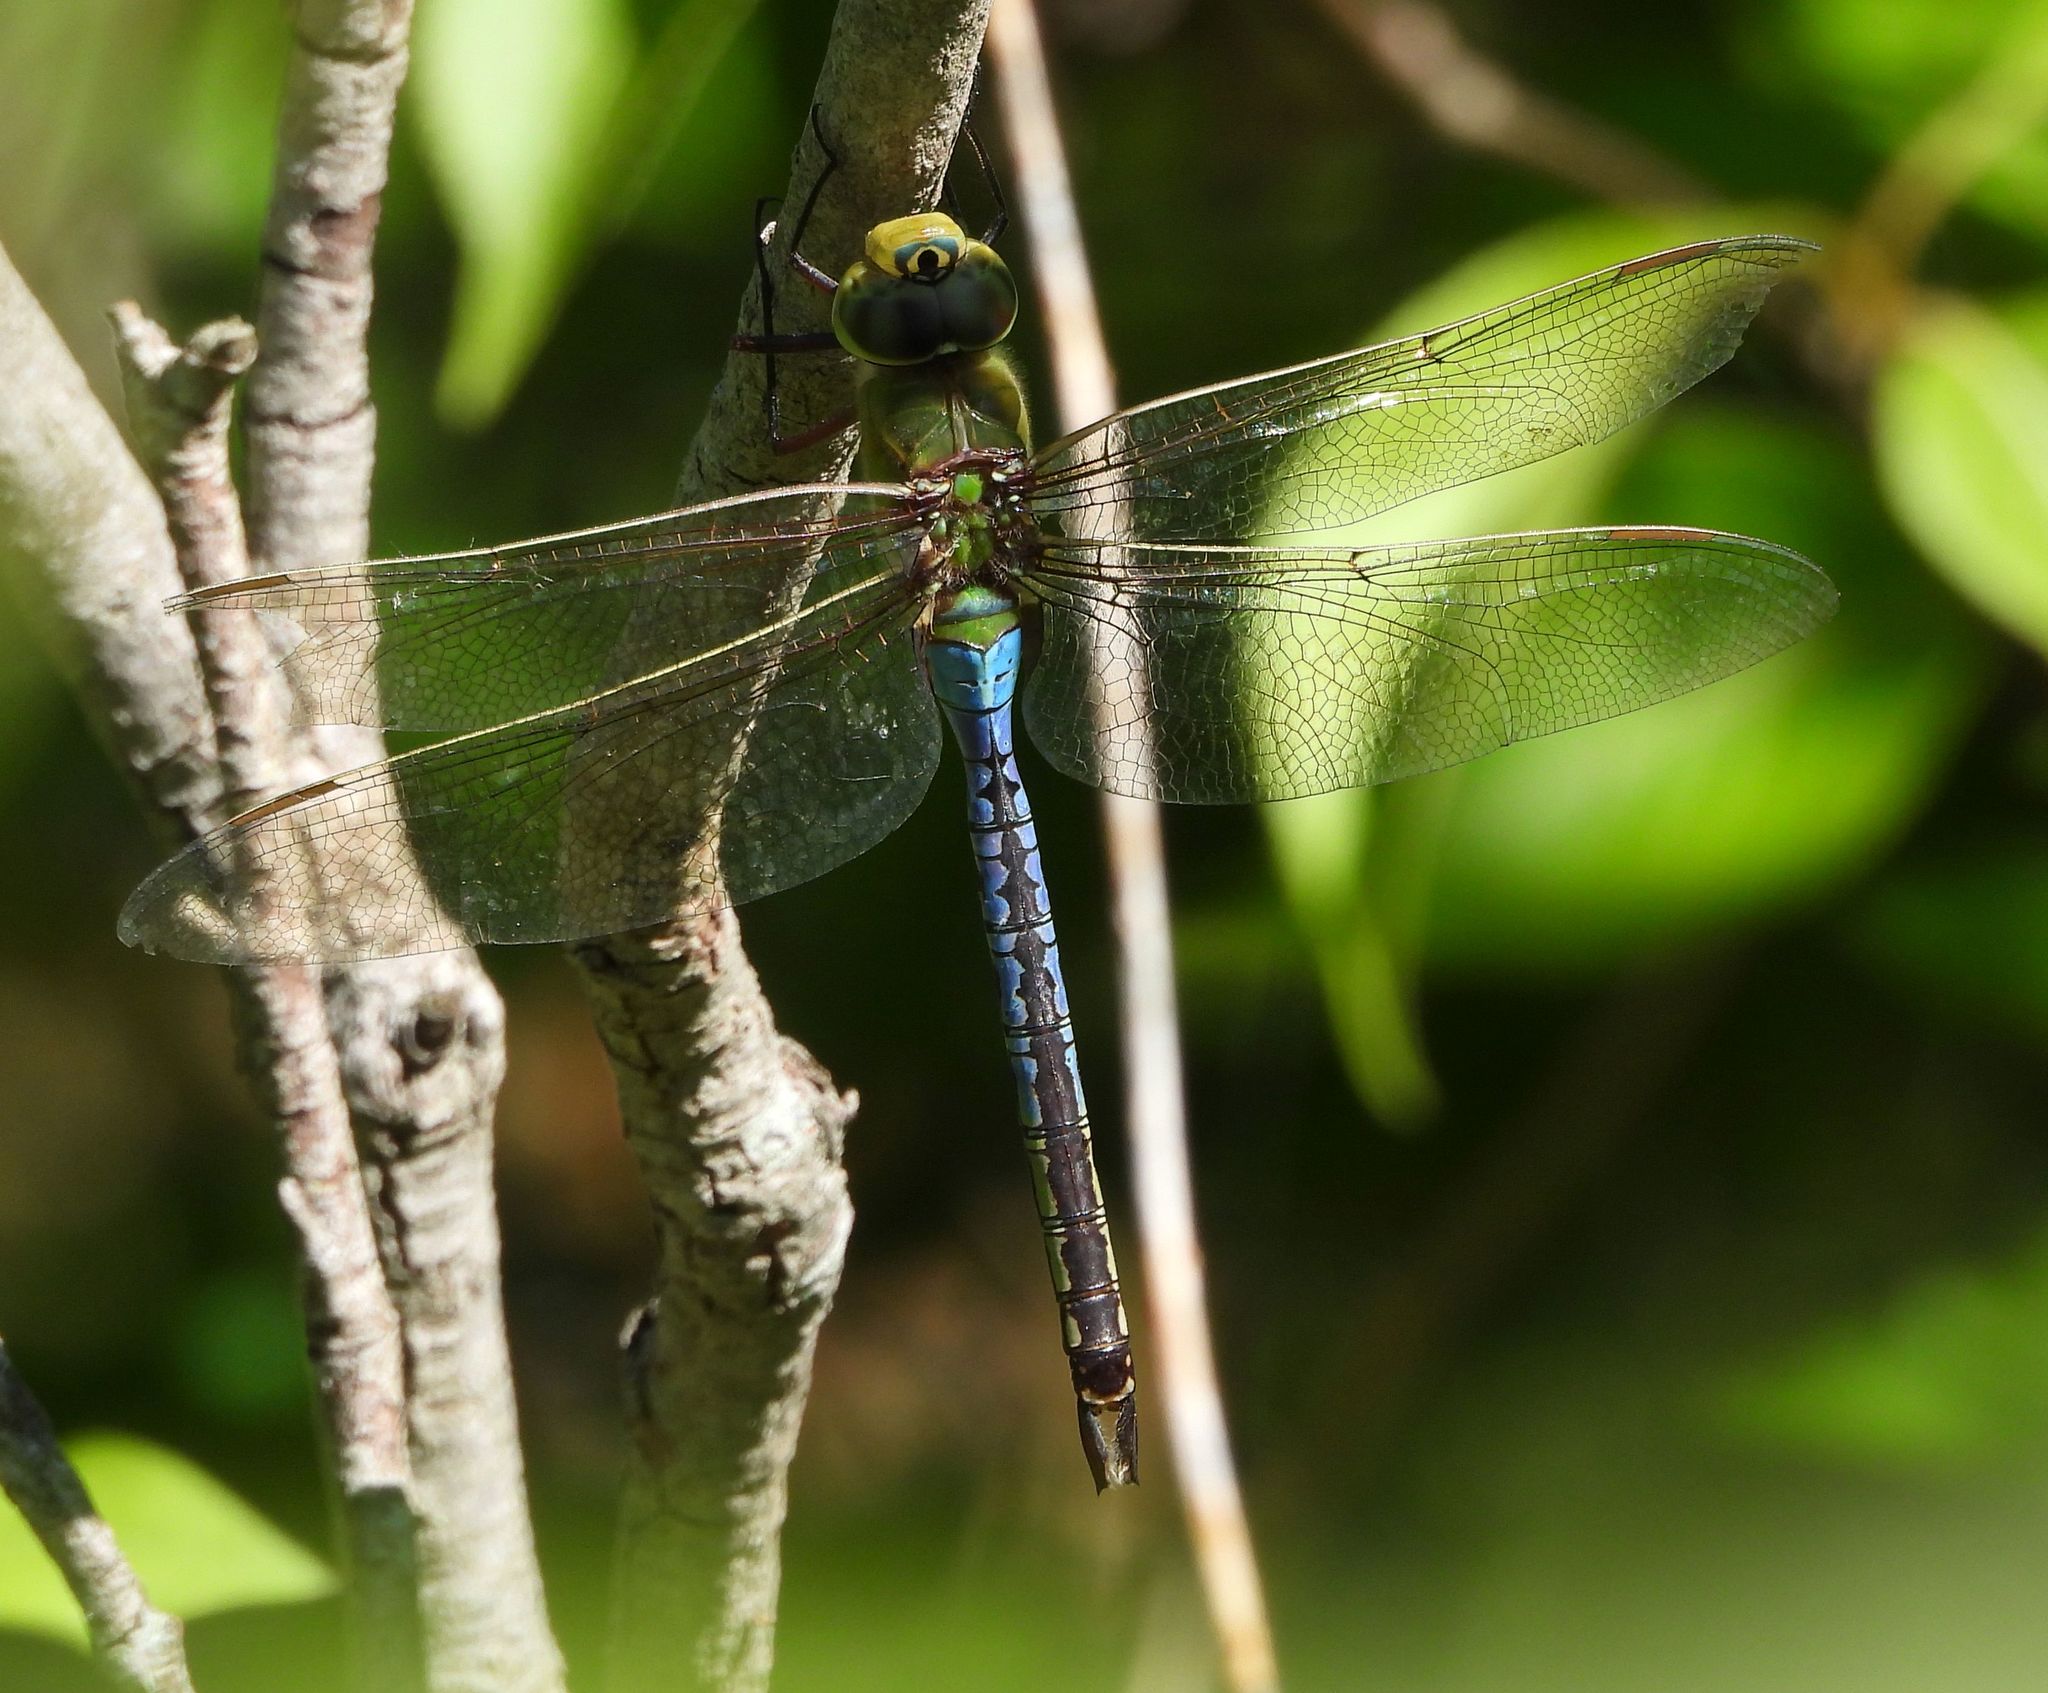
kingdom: Animalia
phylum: Arthropoda
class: Insecta
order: Odonata
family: Aeshnidae
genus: Anax
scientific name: Anax junius
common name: Common green darner
